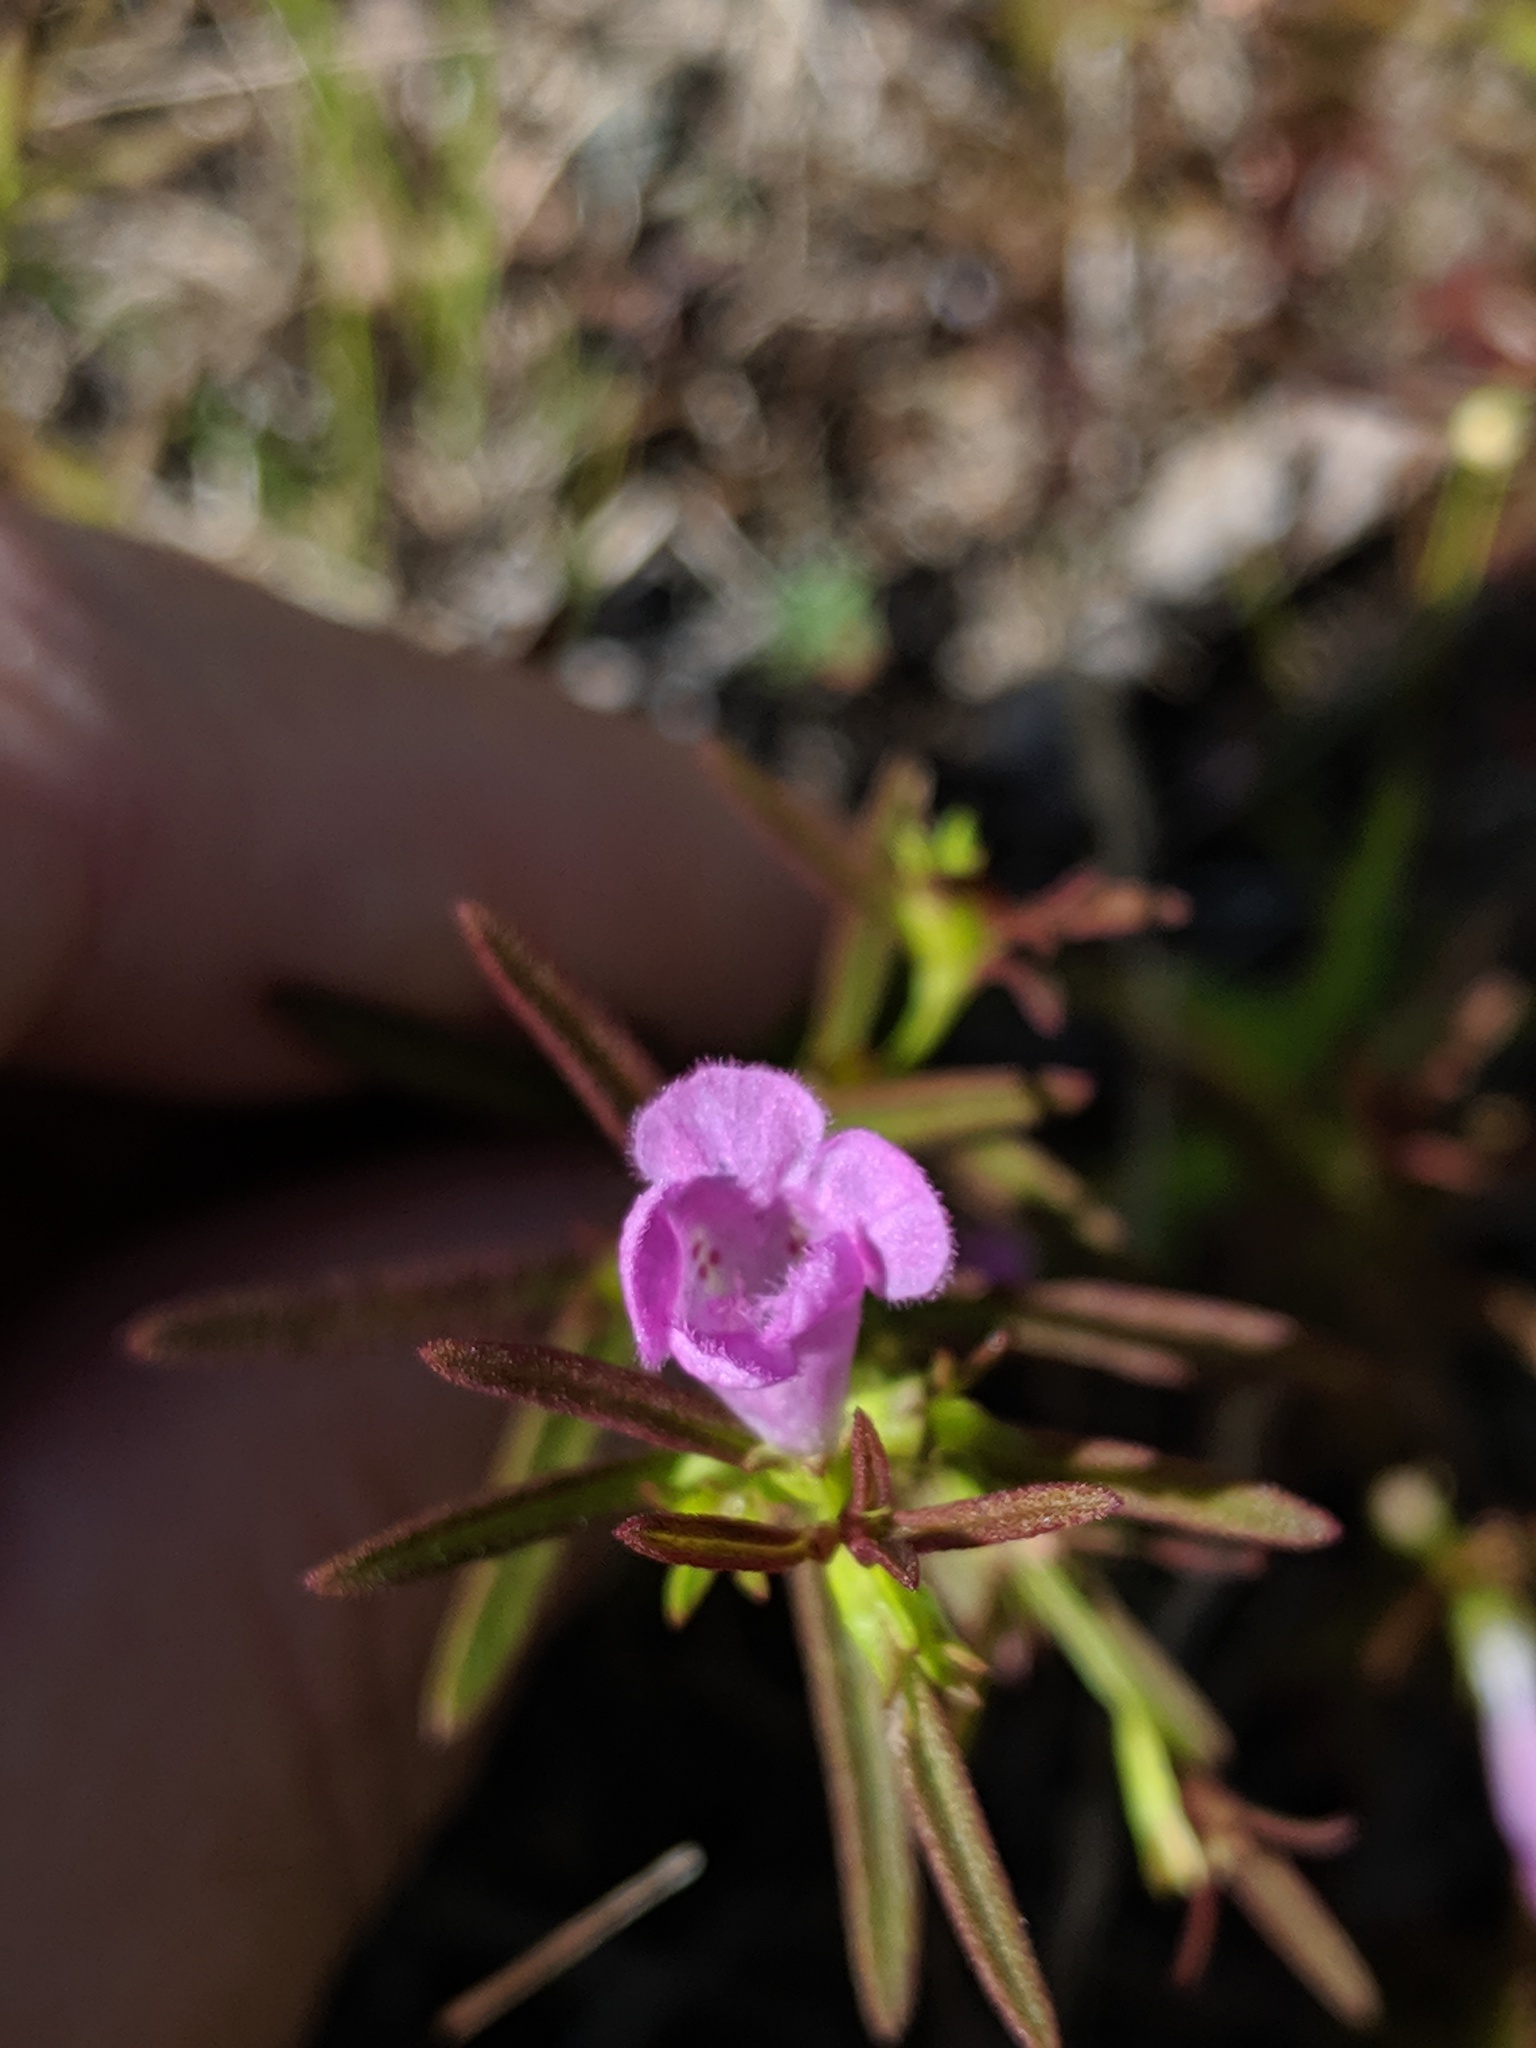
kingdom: Plantae
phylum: Tracheophyta
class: Magnoliopsida
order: Lamiales
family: Orobanchaceae
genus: Agalinis
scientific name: Agalinis neoscotica
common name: Middleton false foxglove
